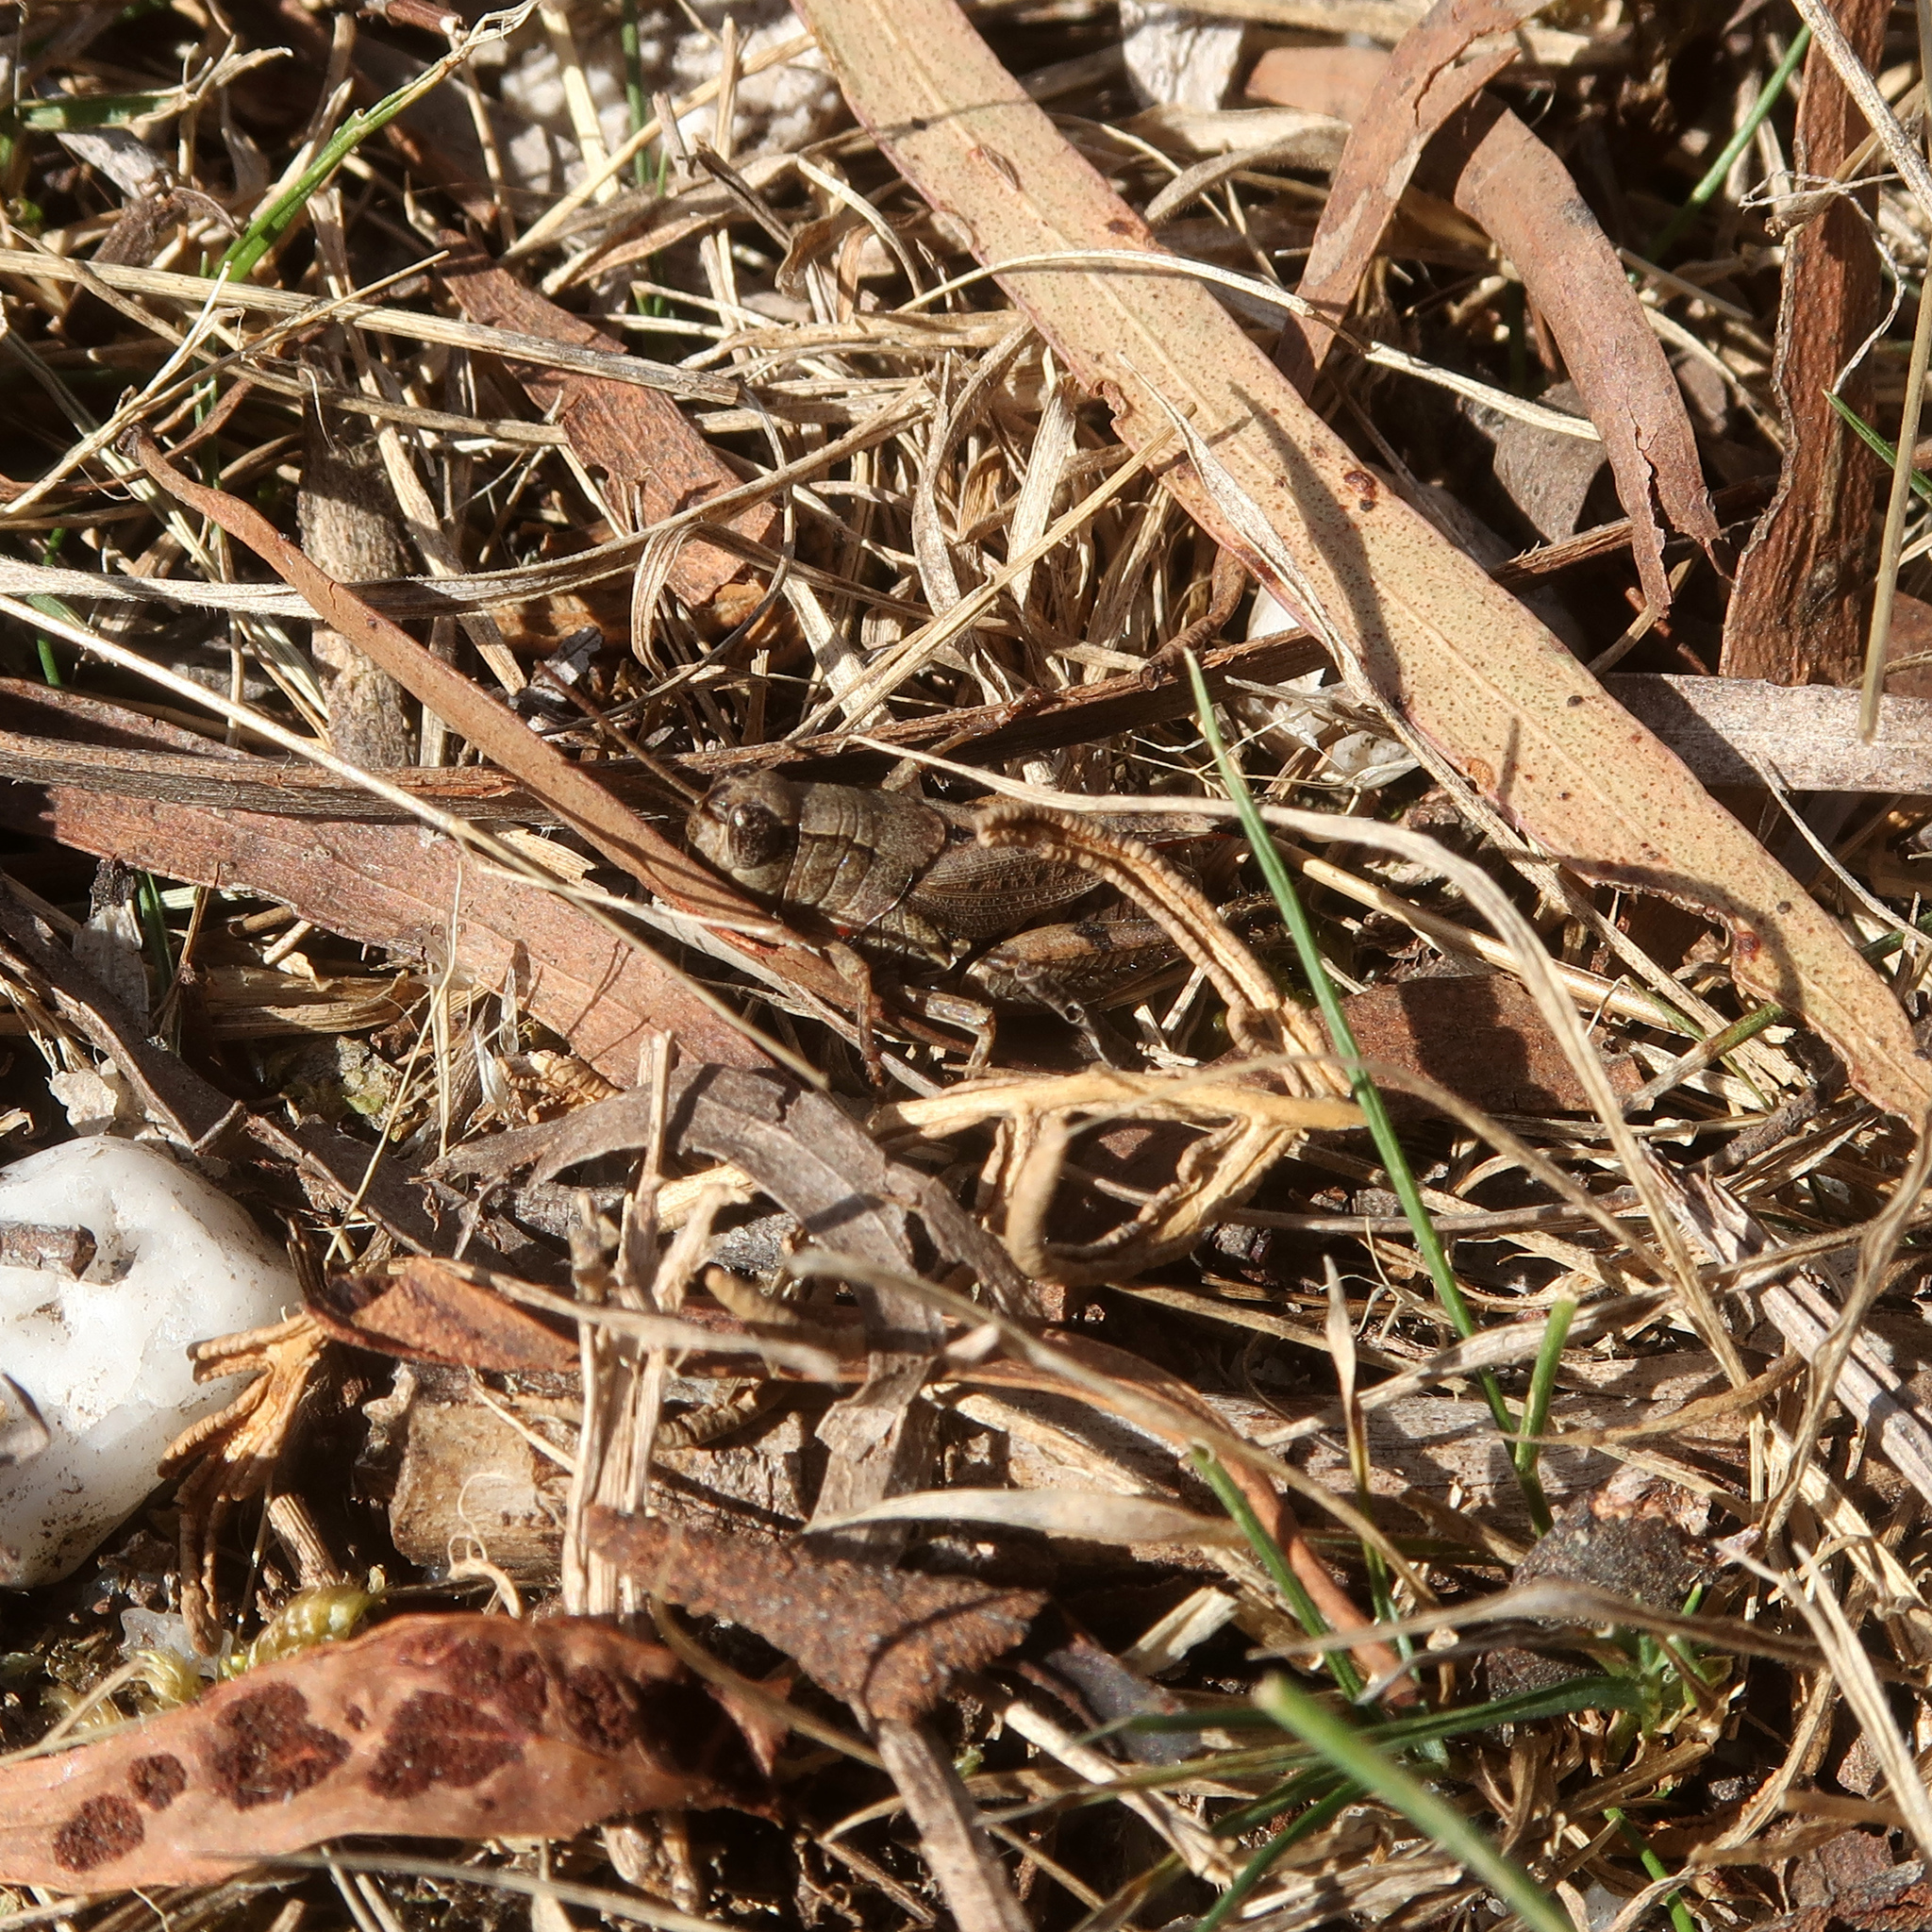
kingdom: Animalia
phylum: Arthropoda
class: Insecta
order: Orthoptera
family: Acrididae
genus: Phaulacridium
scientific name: Phaulacridium vittatum
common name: Wingless grasshopper
